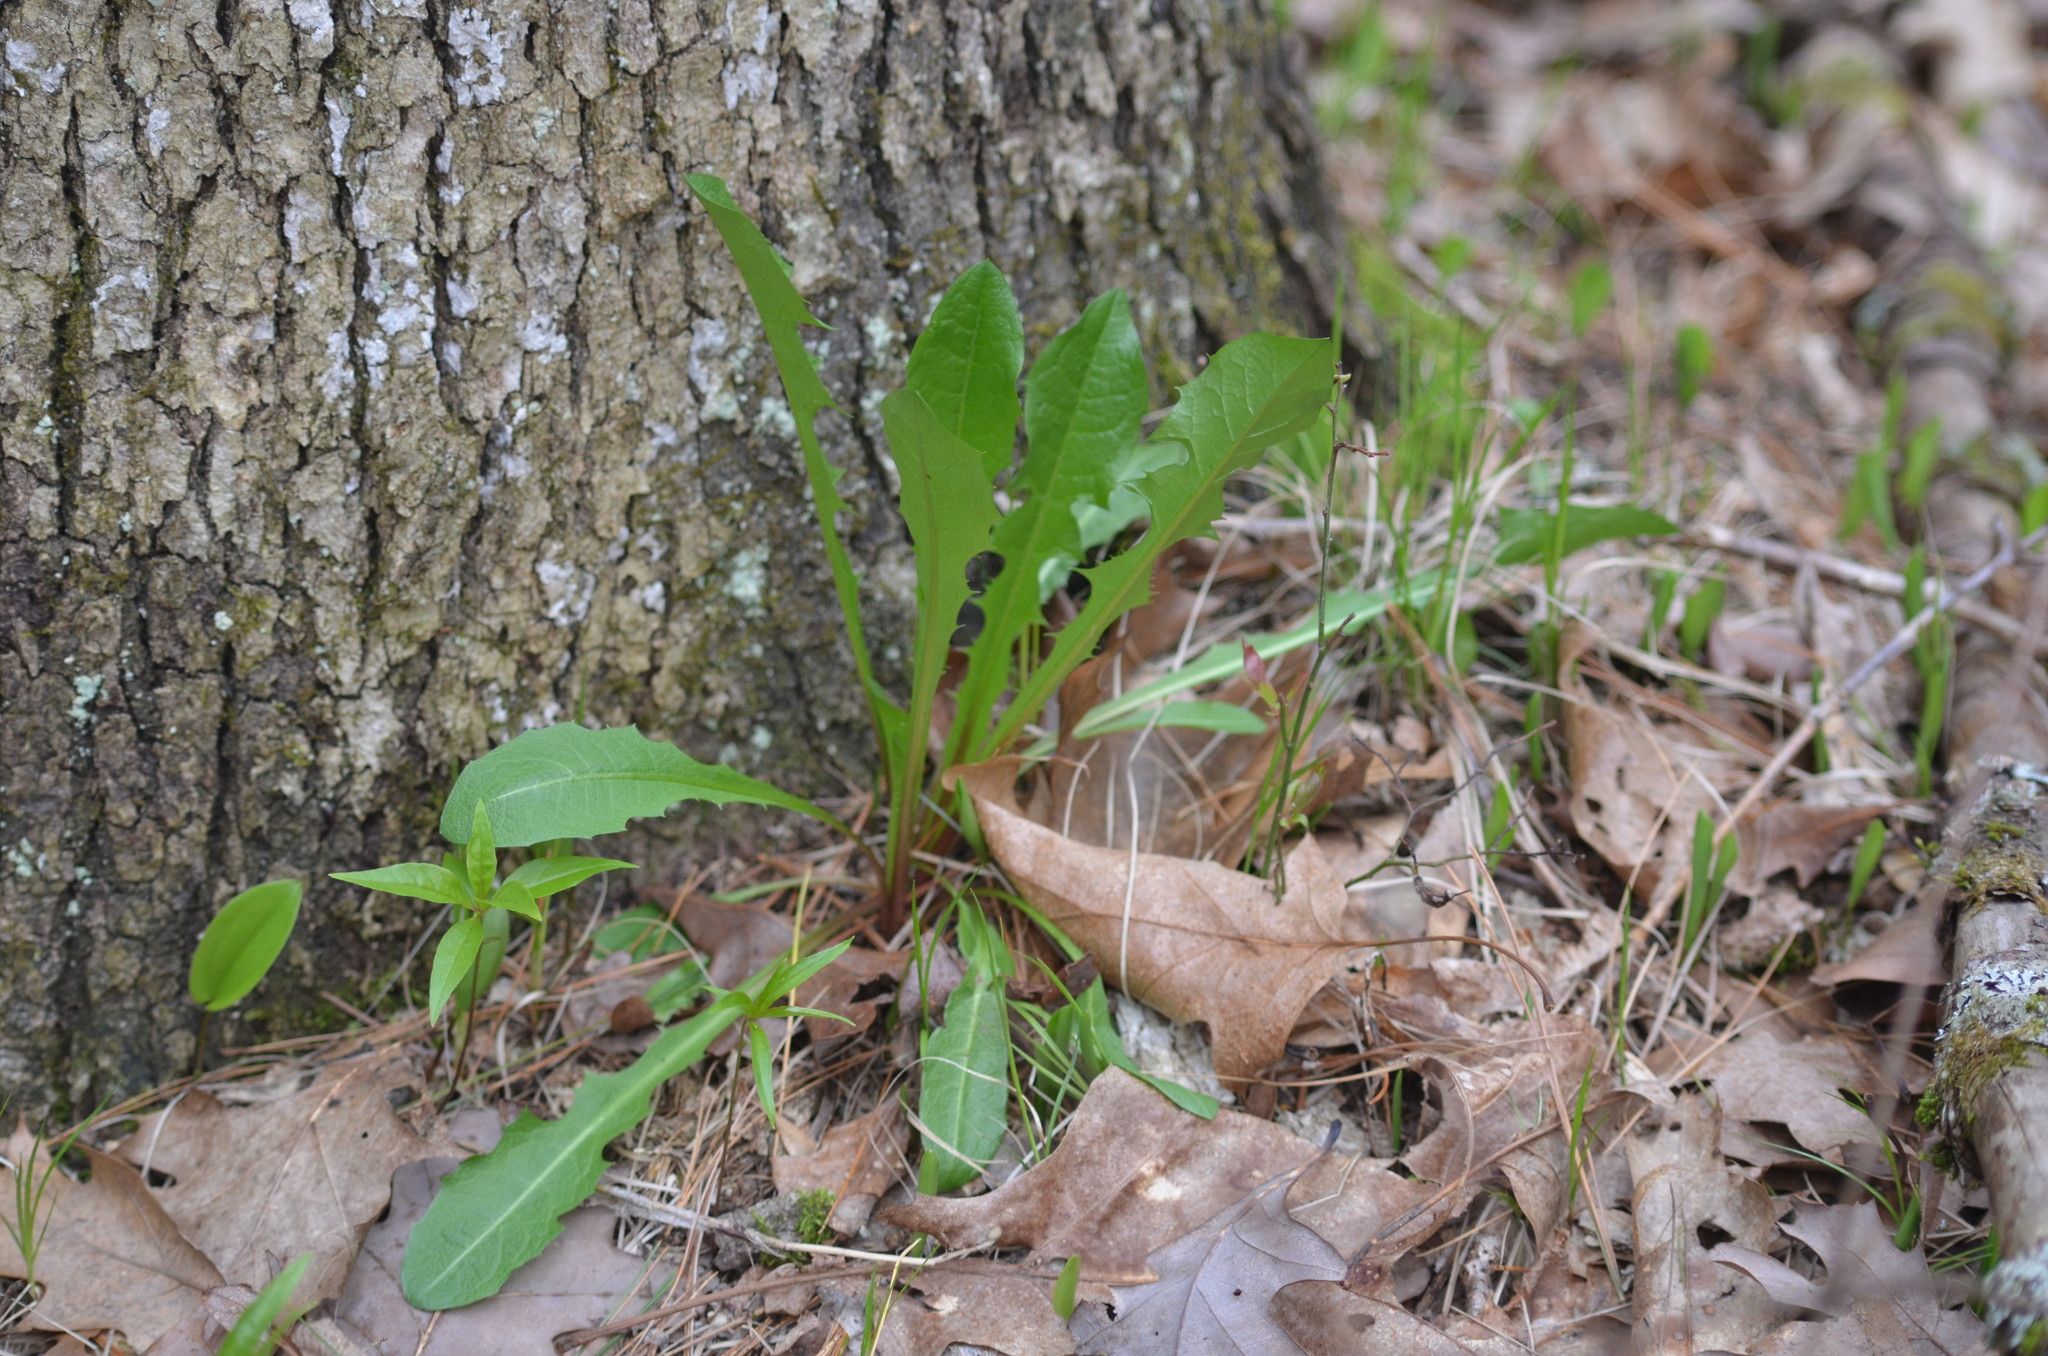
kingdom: Plantae
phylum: Tracheophyta
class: Magnoliopsida
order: Asterales
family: Asteraceae
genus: Taraxacum
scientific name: Taraxacum officinale
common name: Common dandelion
